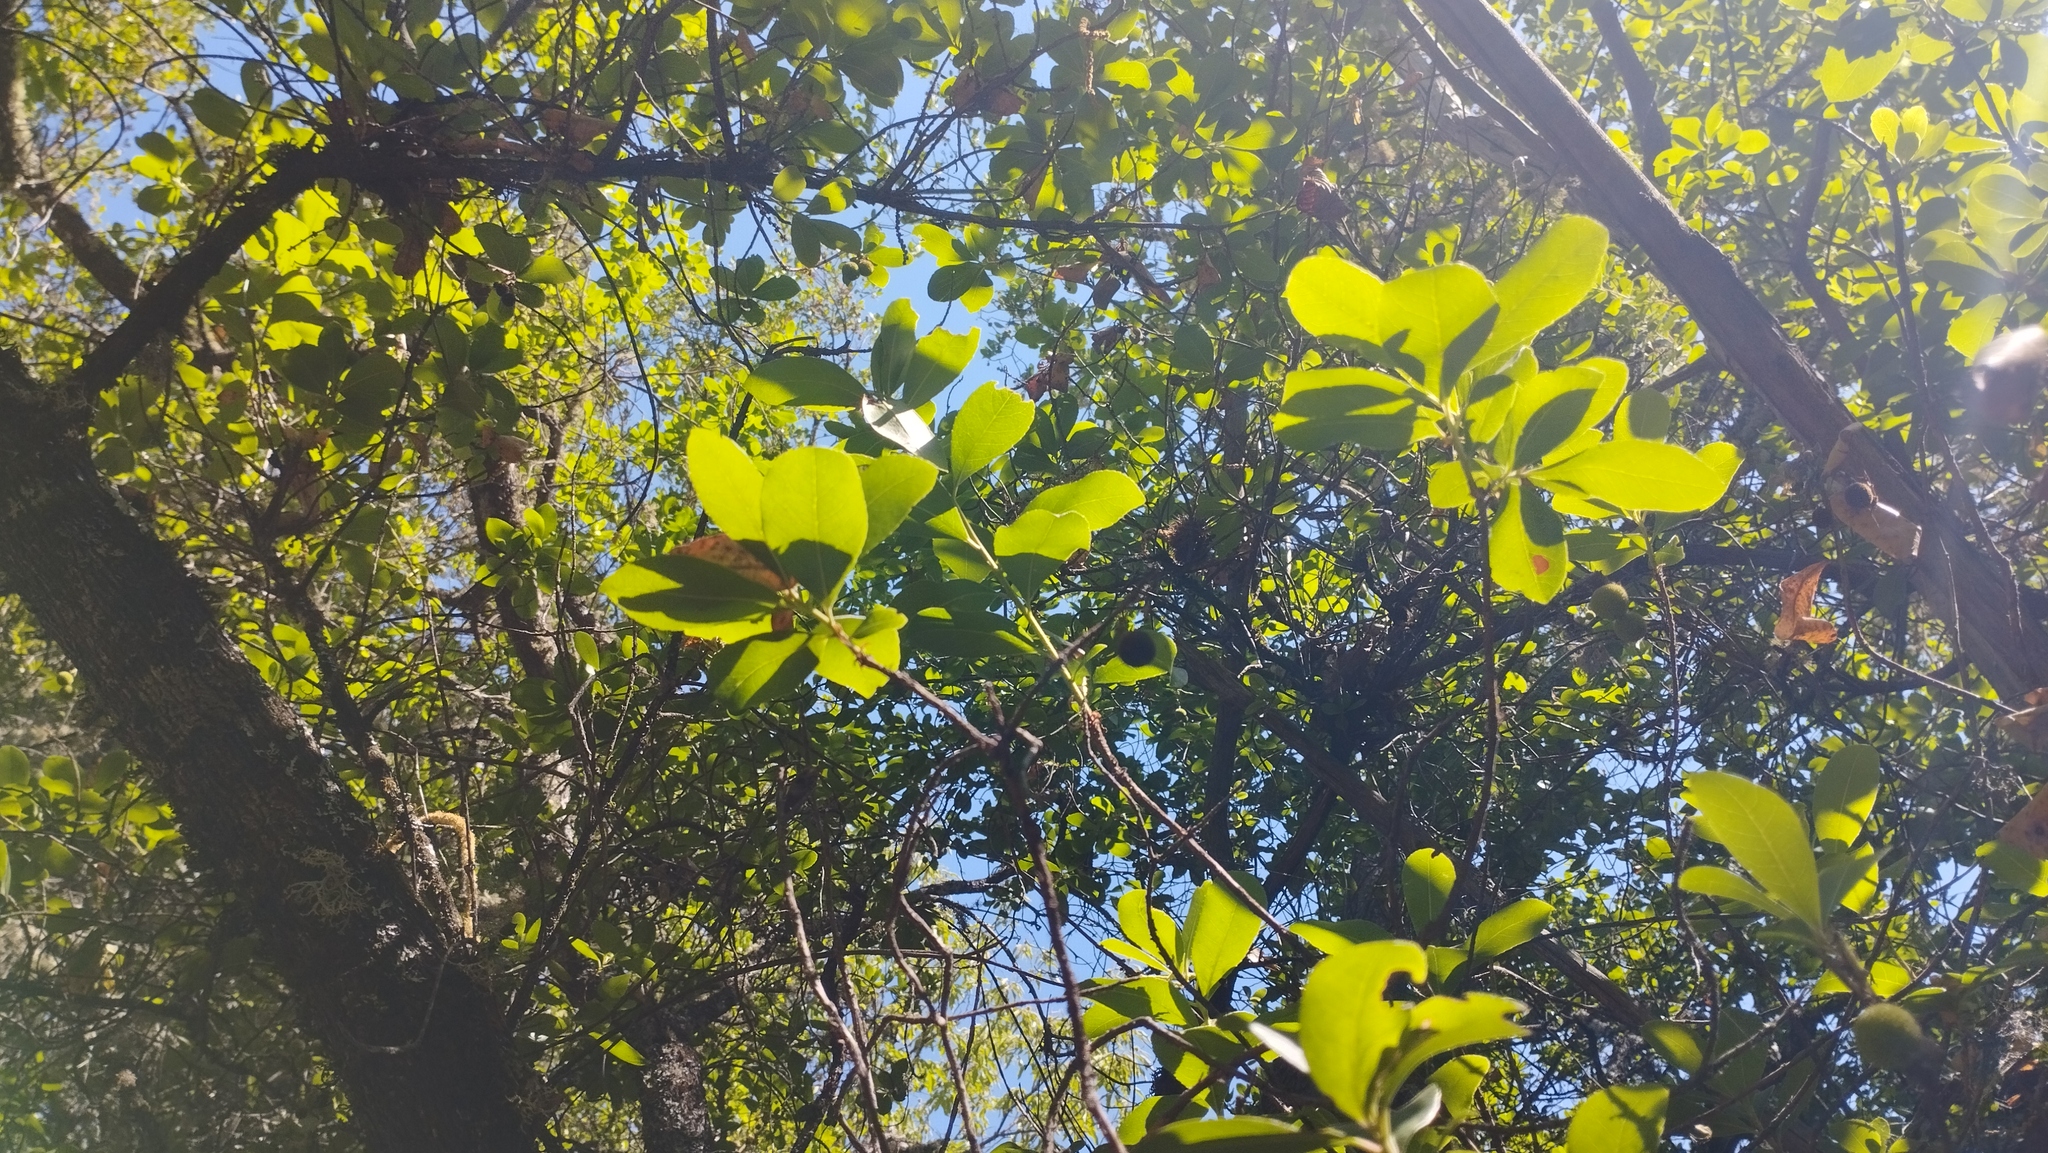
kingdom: Plantae
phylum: Tracheophyta
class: Magnoliopsida
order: Ericales
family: Ericaceae
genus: Arbutus
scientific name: Arbutus unedo
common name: Strawberry-tree
